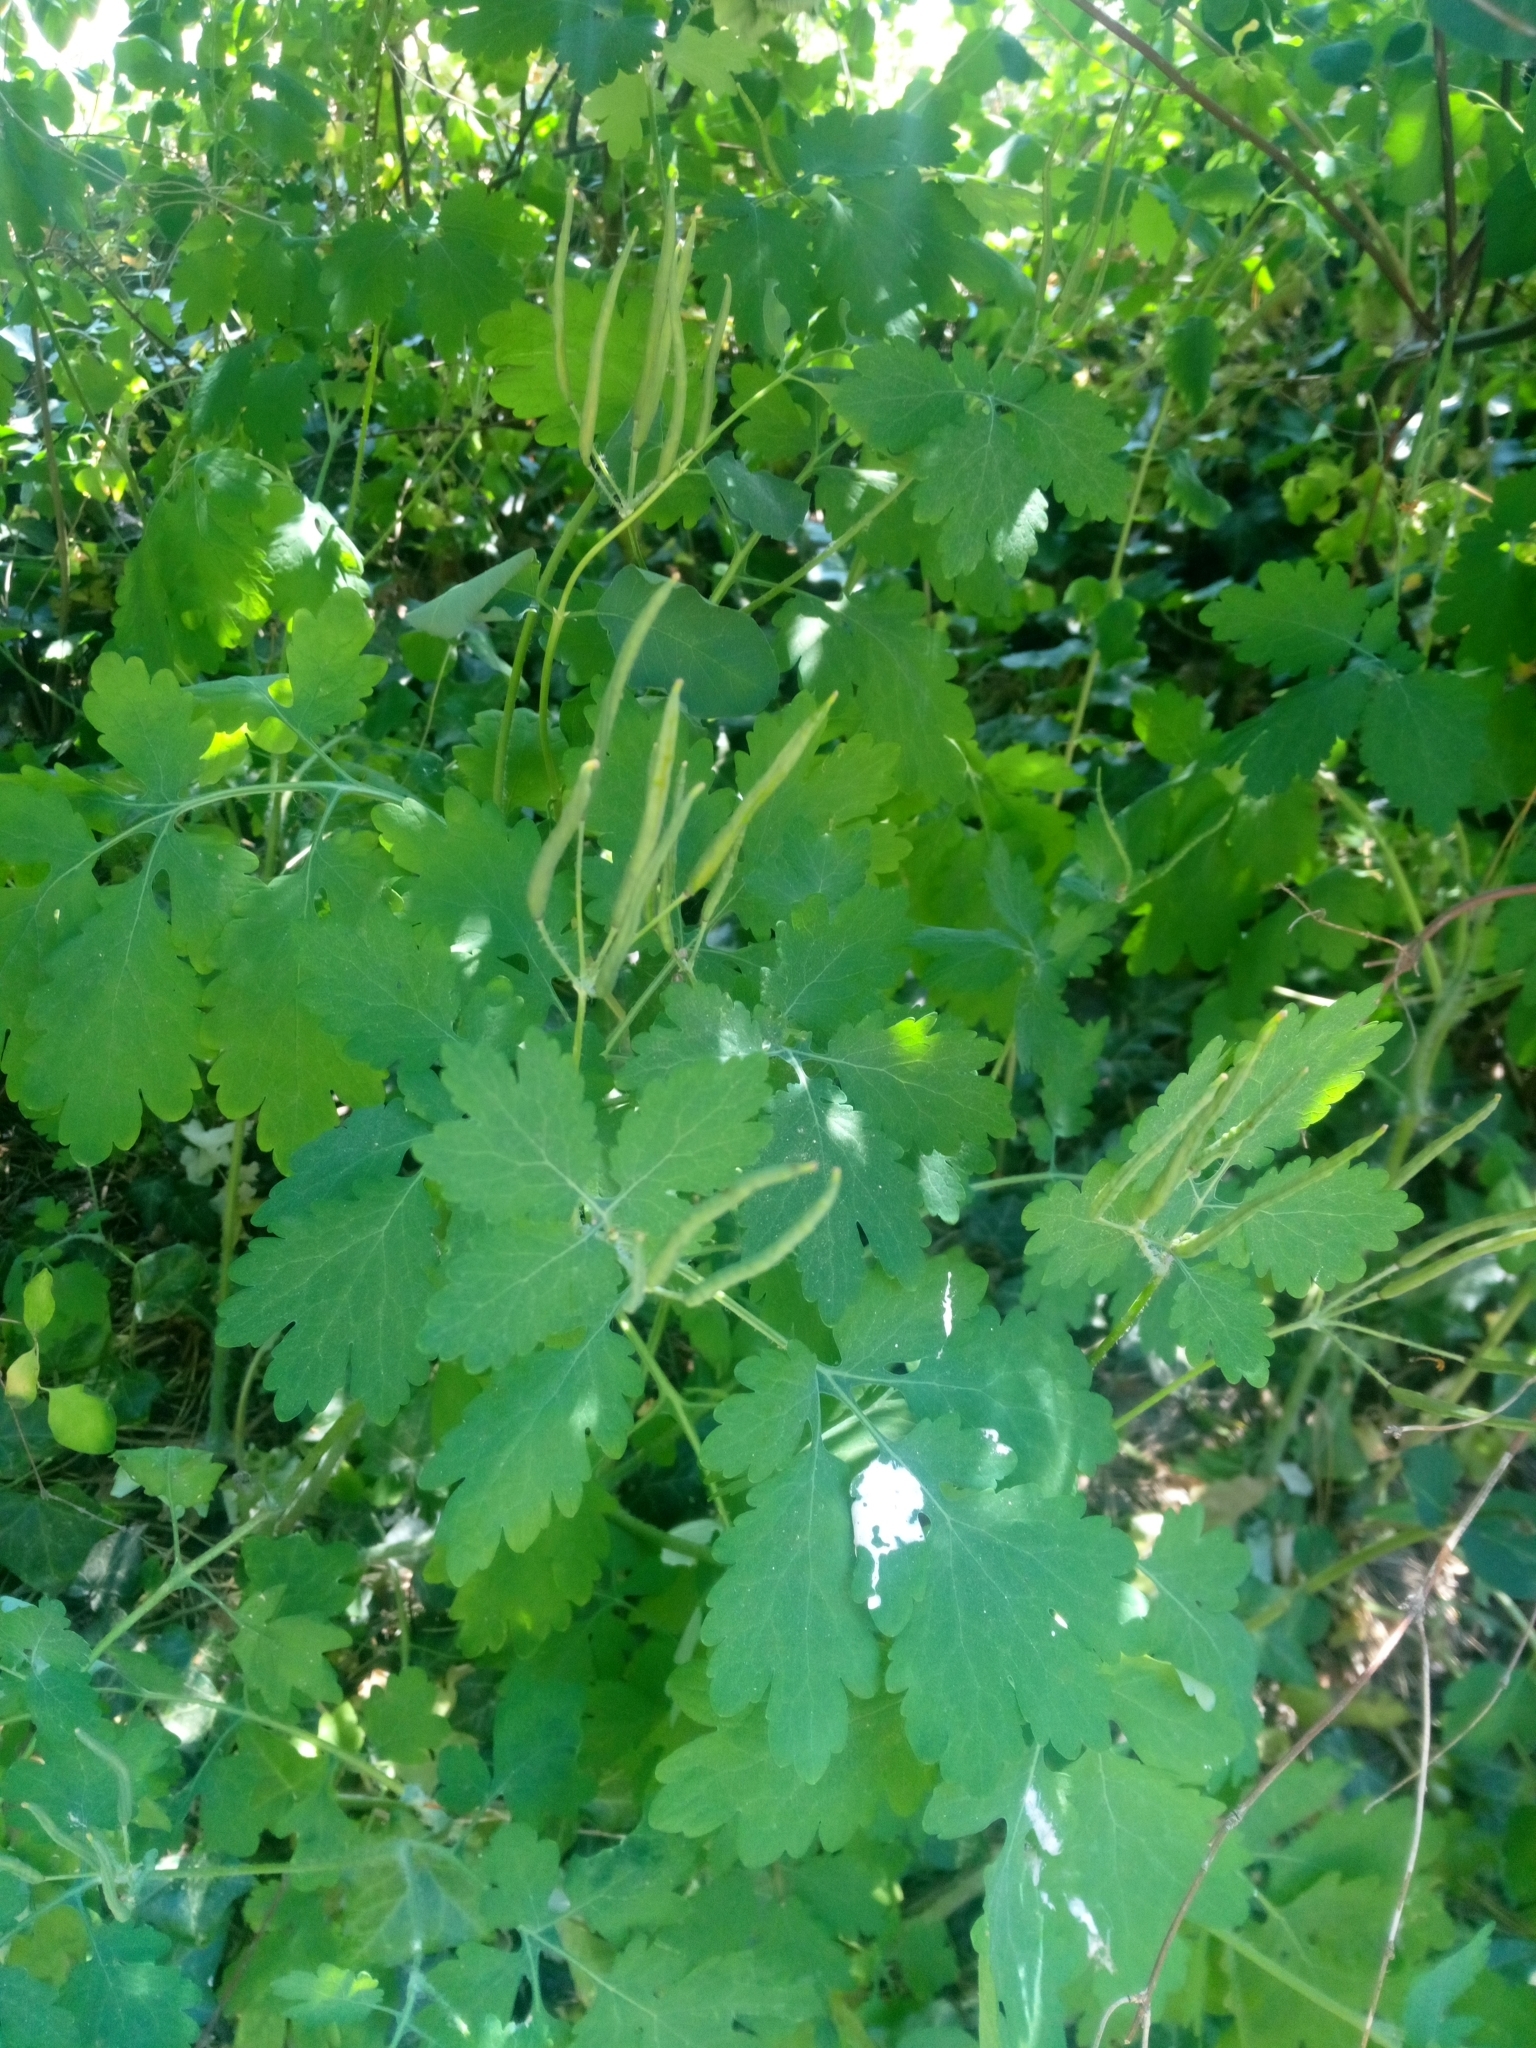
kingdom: Plantae
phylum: Tracheophyta
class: Magnoliopsida
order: Ranunculales
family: Papaveraceae
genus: Chelidonium
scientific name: Chelidonium majus
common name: Greater celandine
